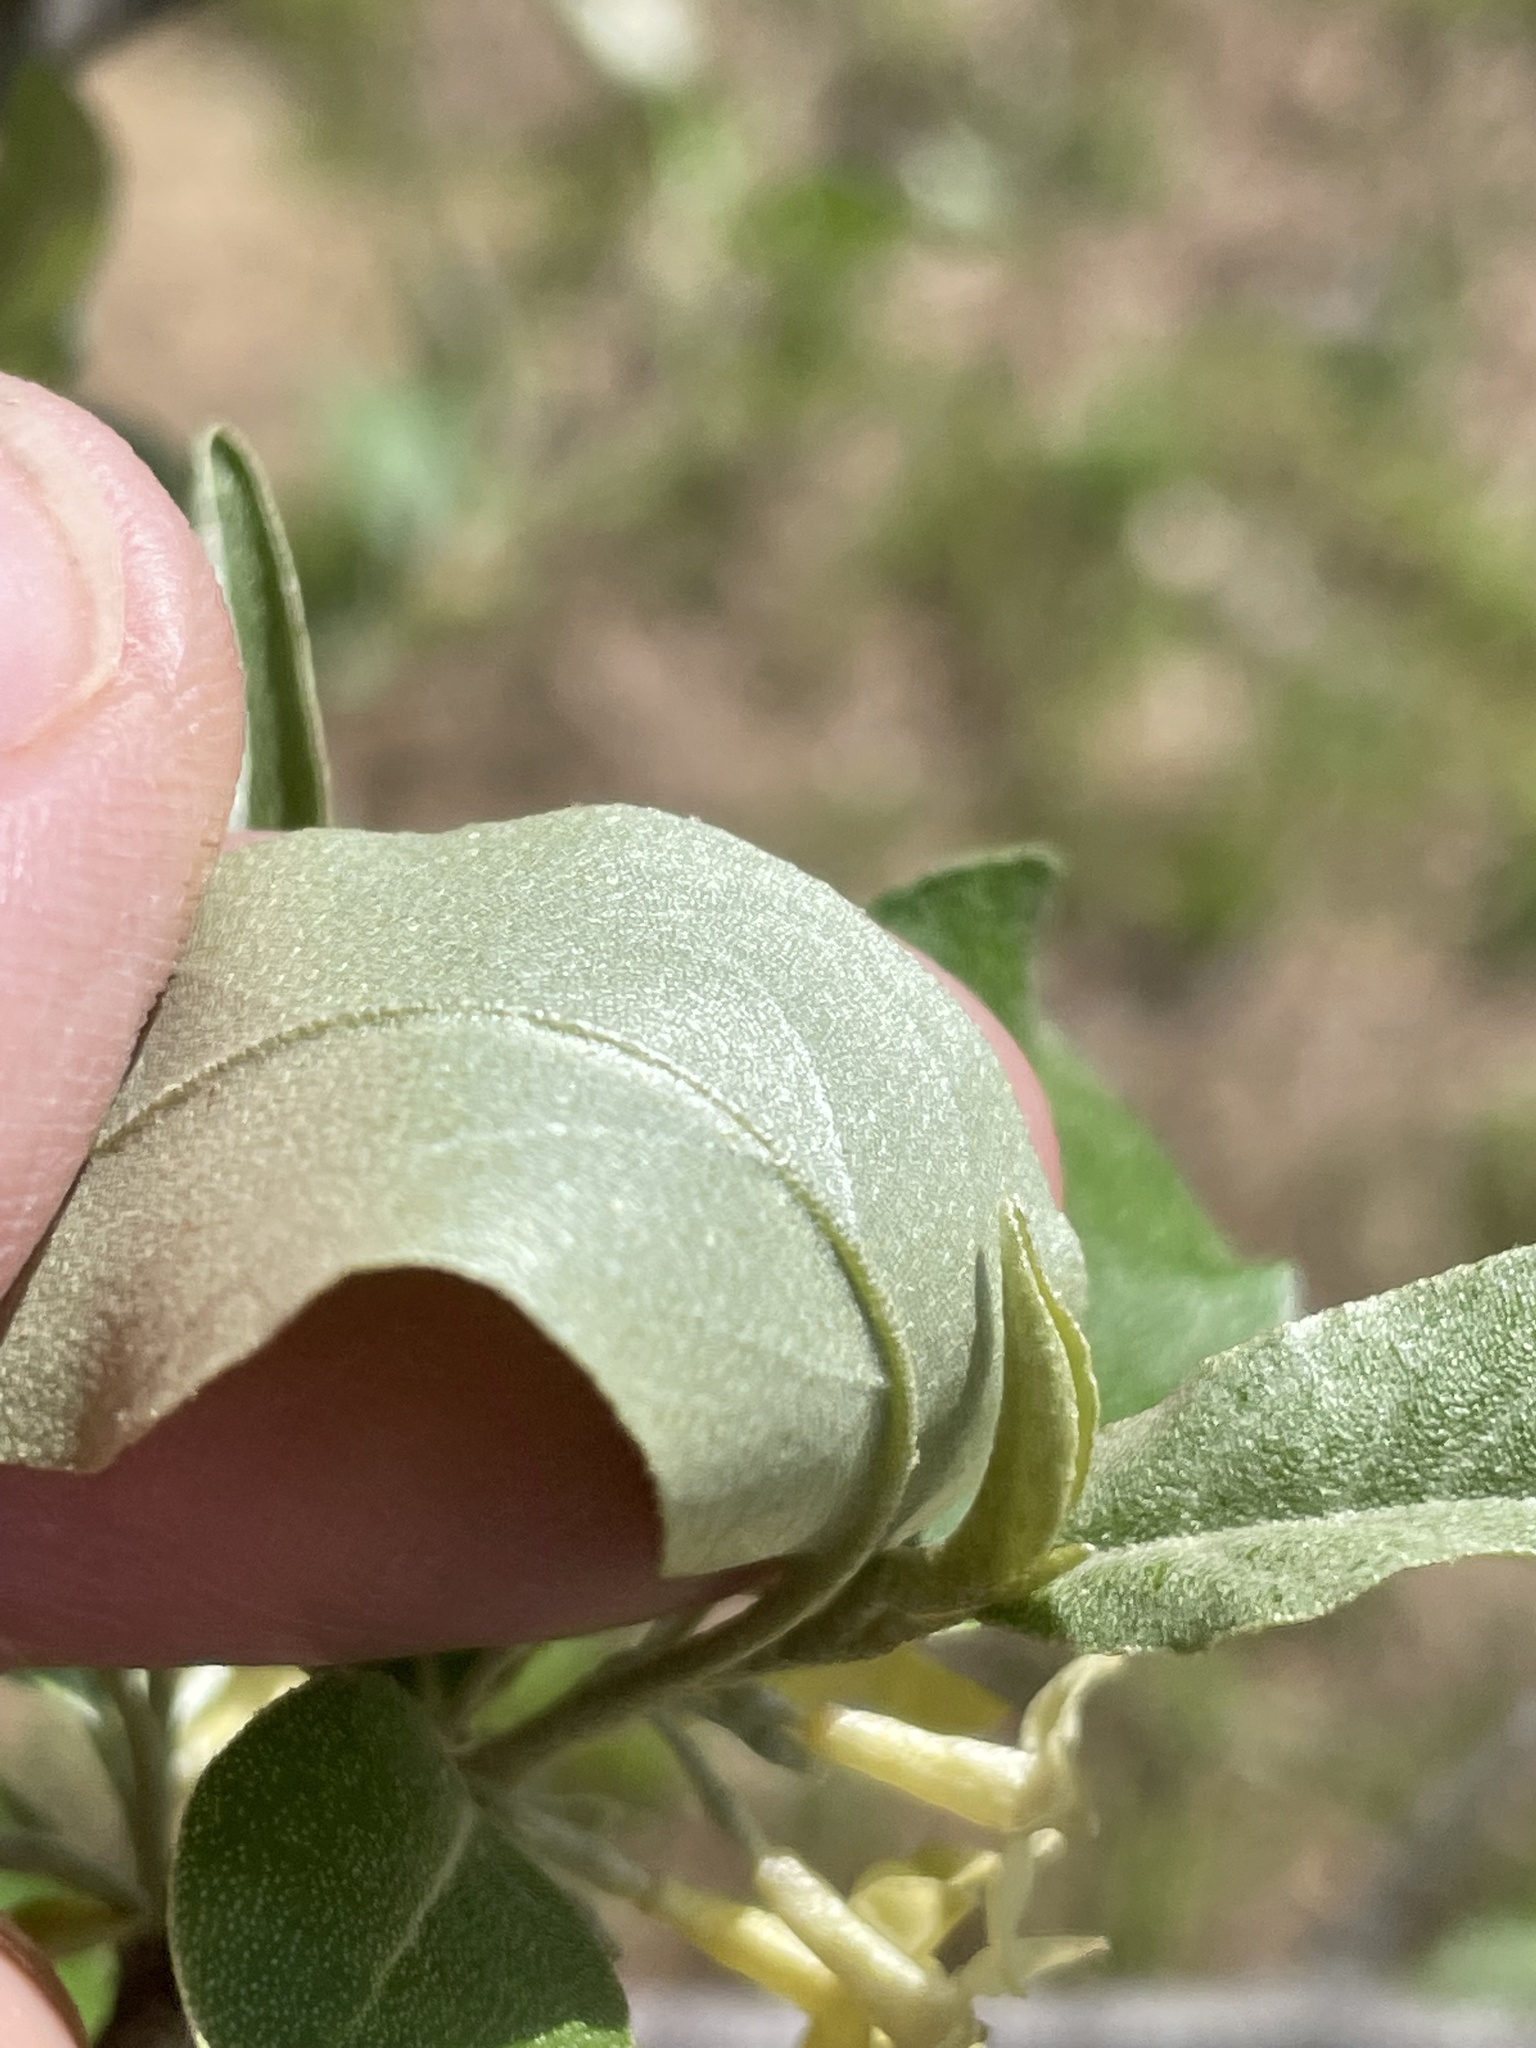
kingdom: Plantae
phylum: Tracheophyta
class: Magnoliopsida
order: Rosales
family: Elaeagnaceae
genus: Elaeagnus
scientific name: Elaeagnus umbellata
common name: Autumn olive
